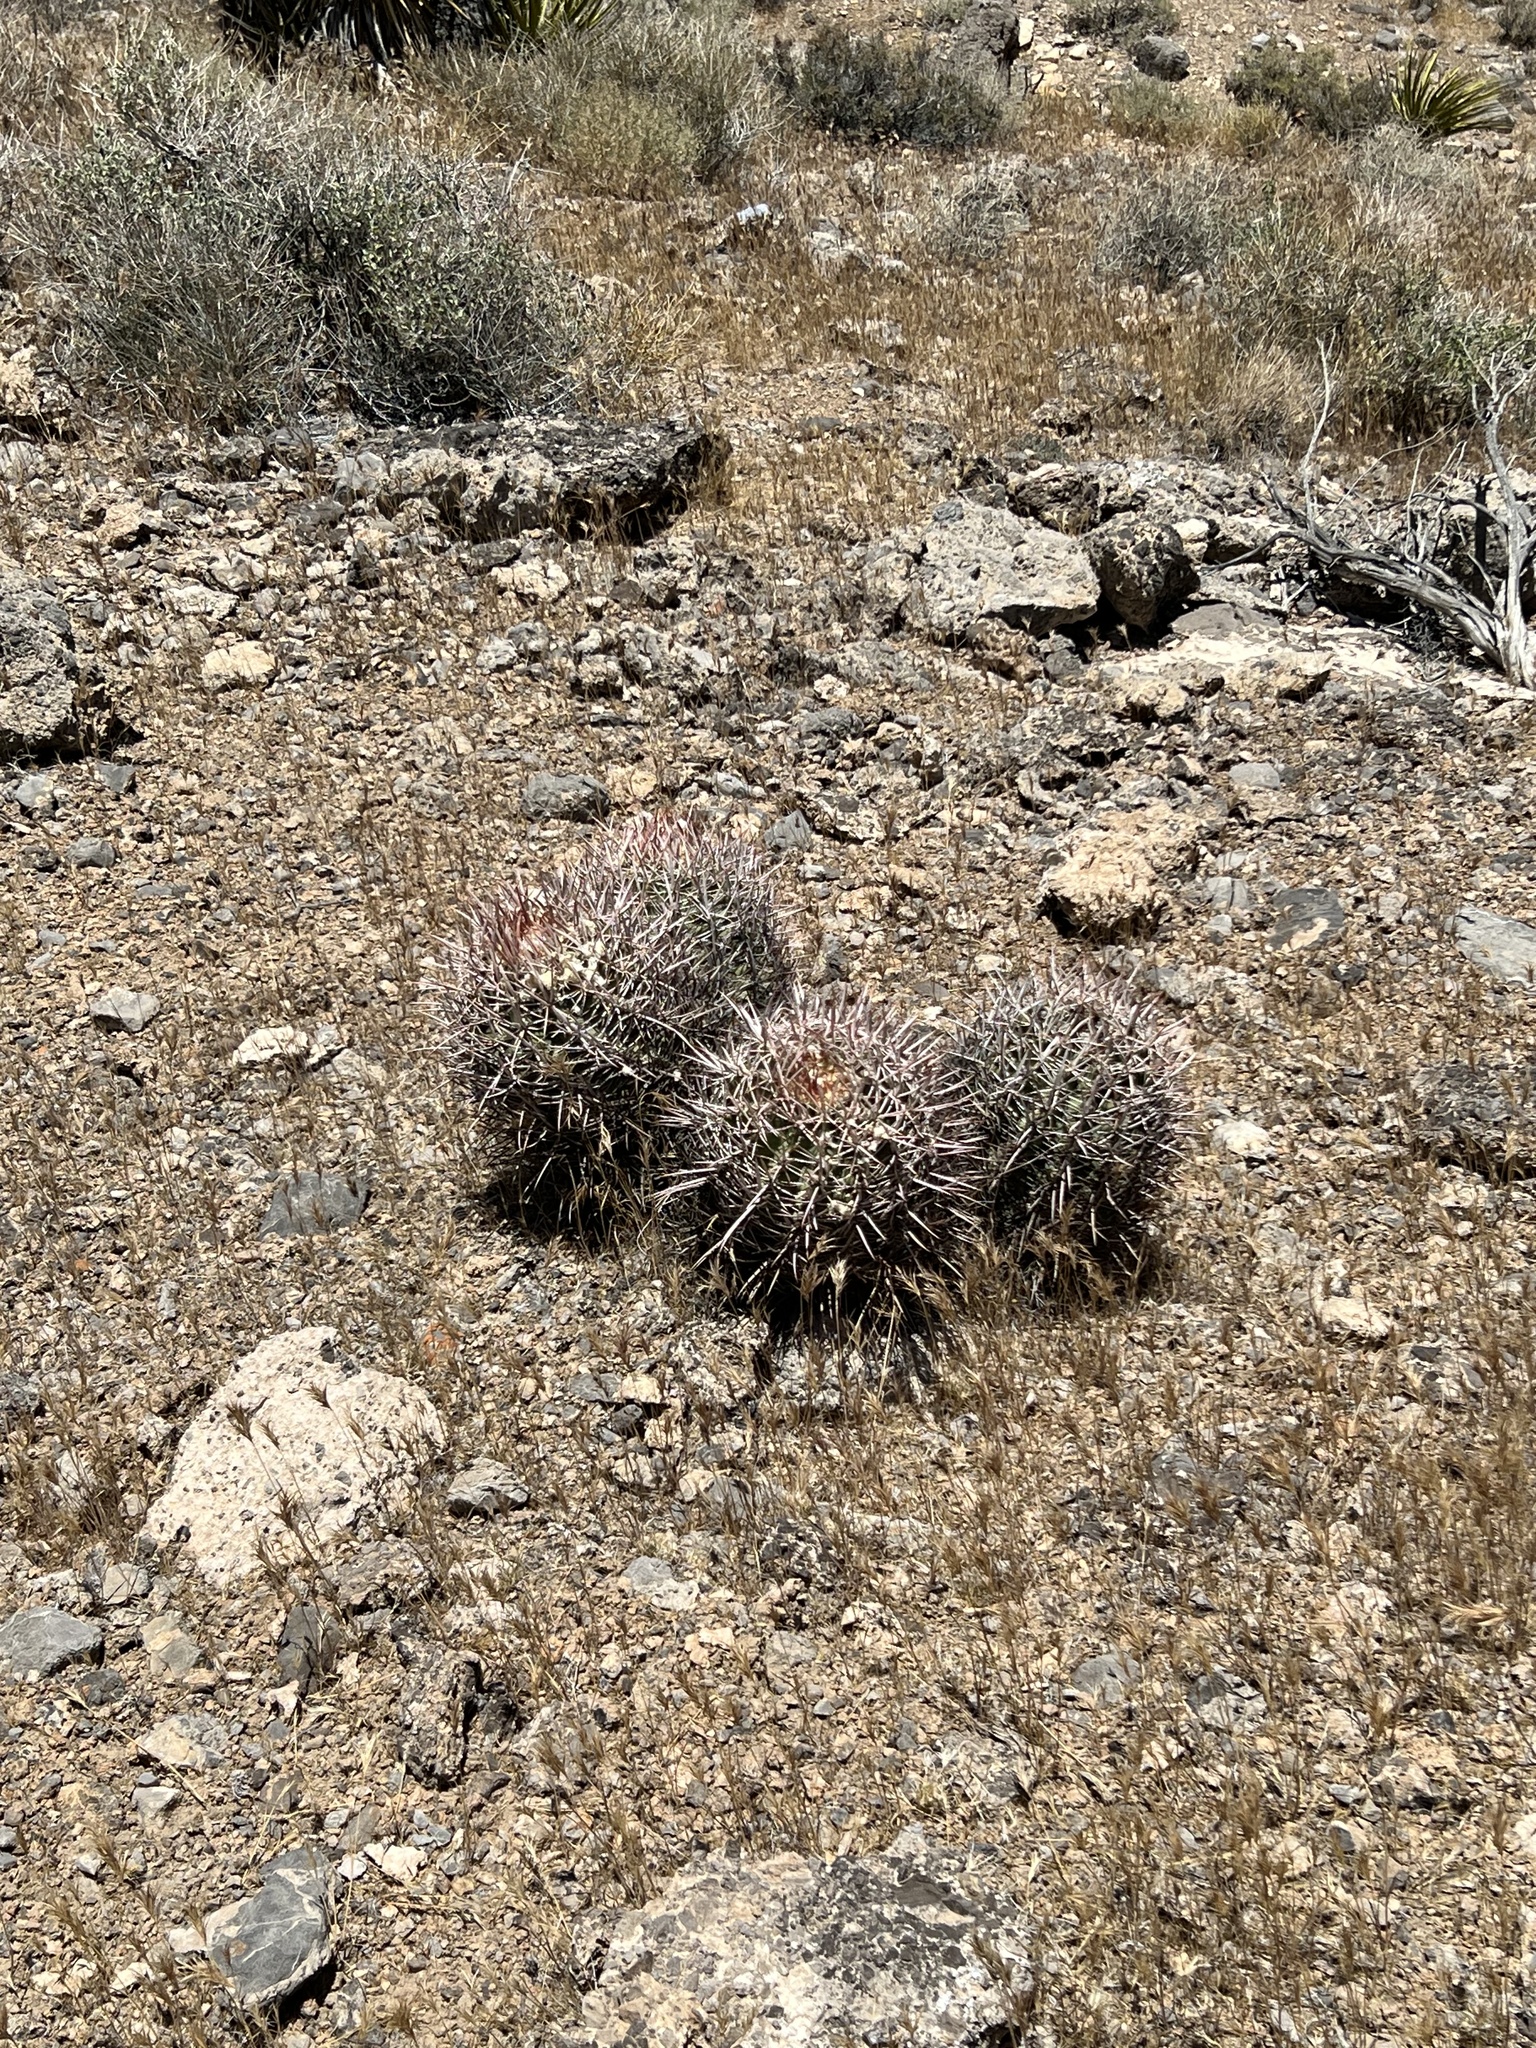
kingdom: Plantae
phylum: Tracheophyta
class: Magnoliopsida
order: Caryophyllales
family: Cactaceae
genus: Echinocactus
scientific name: Echinocactus polycephalus
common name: Cottontop cactus
